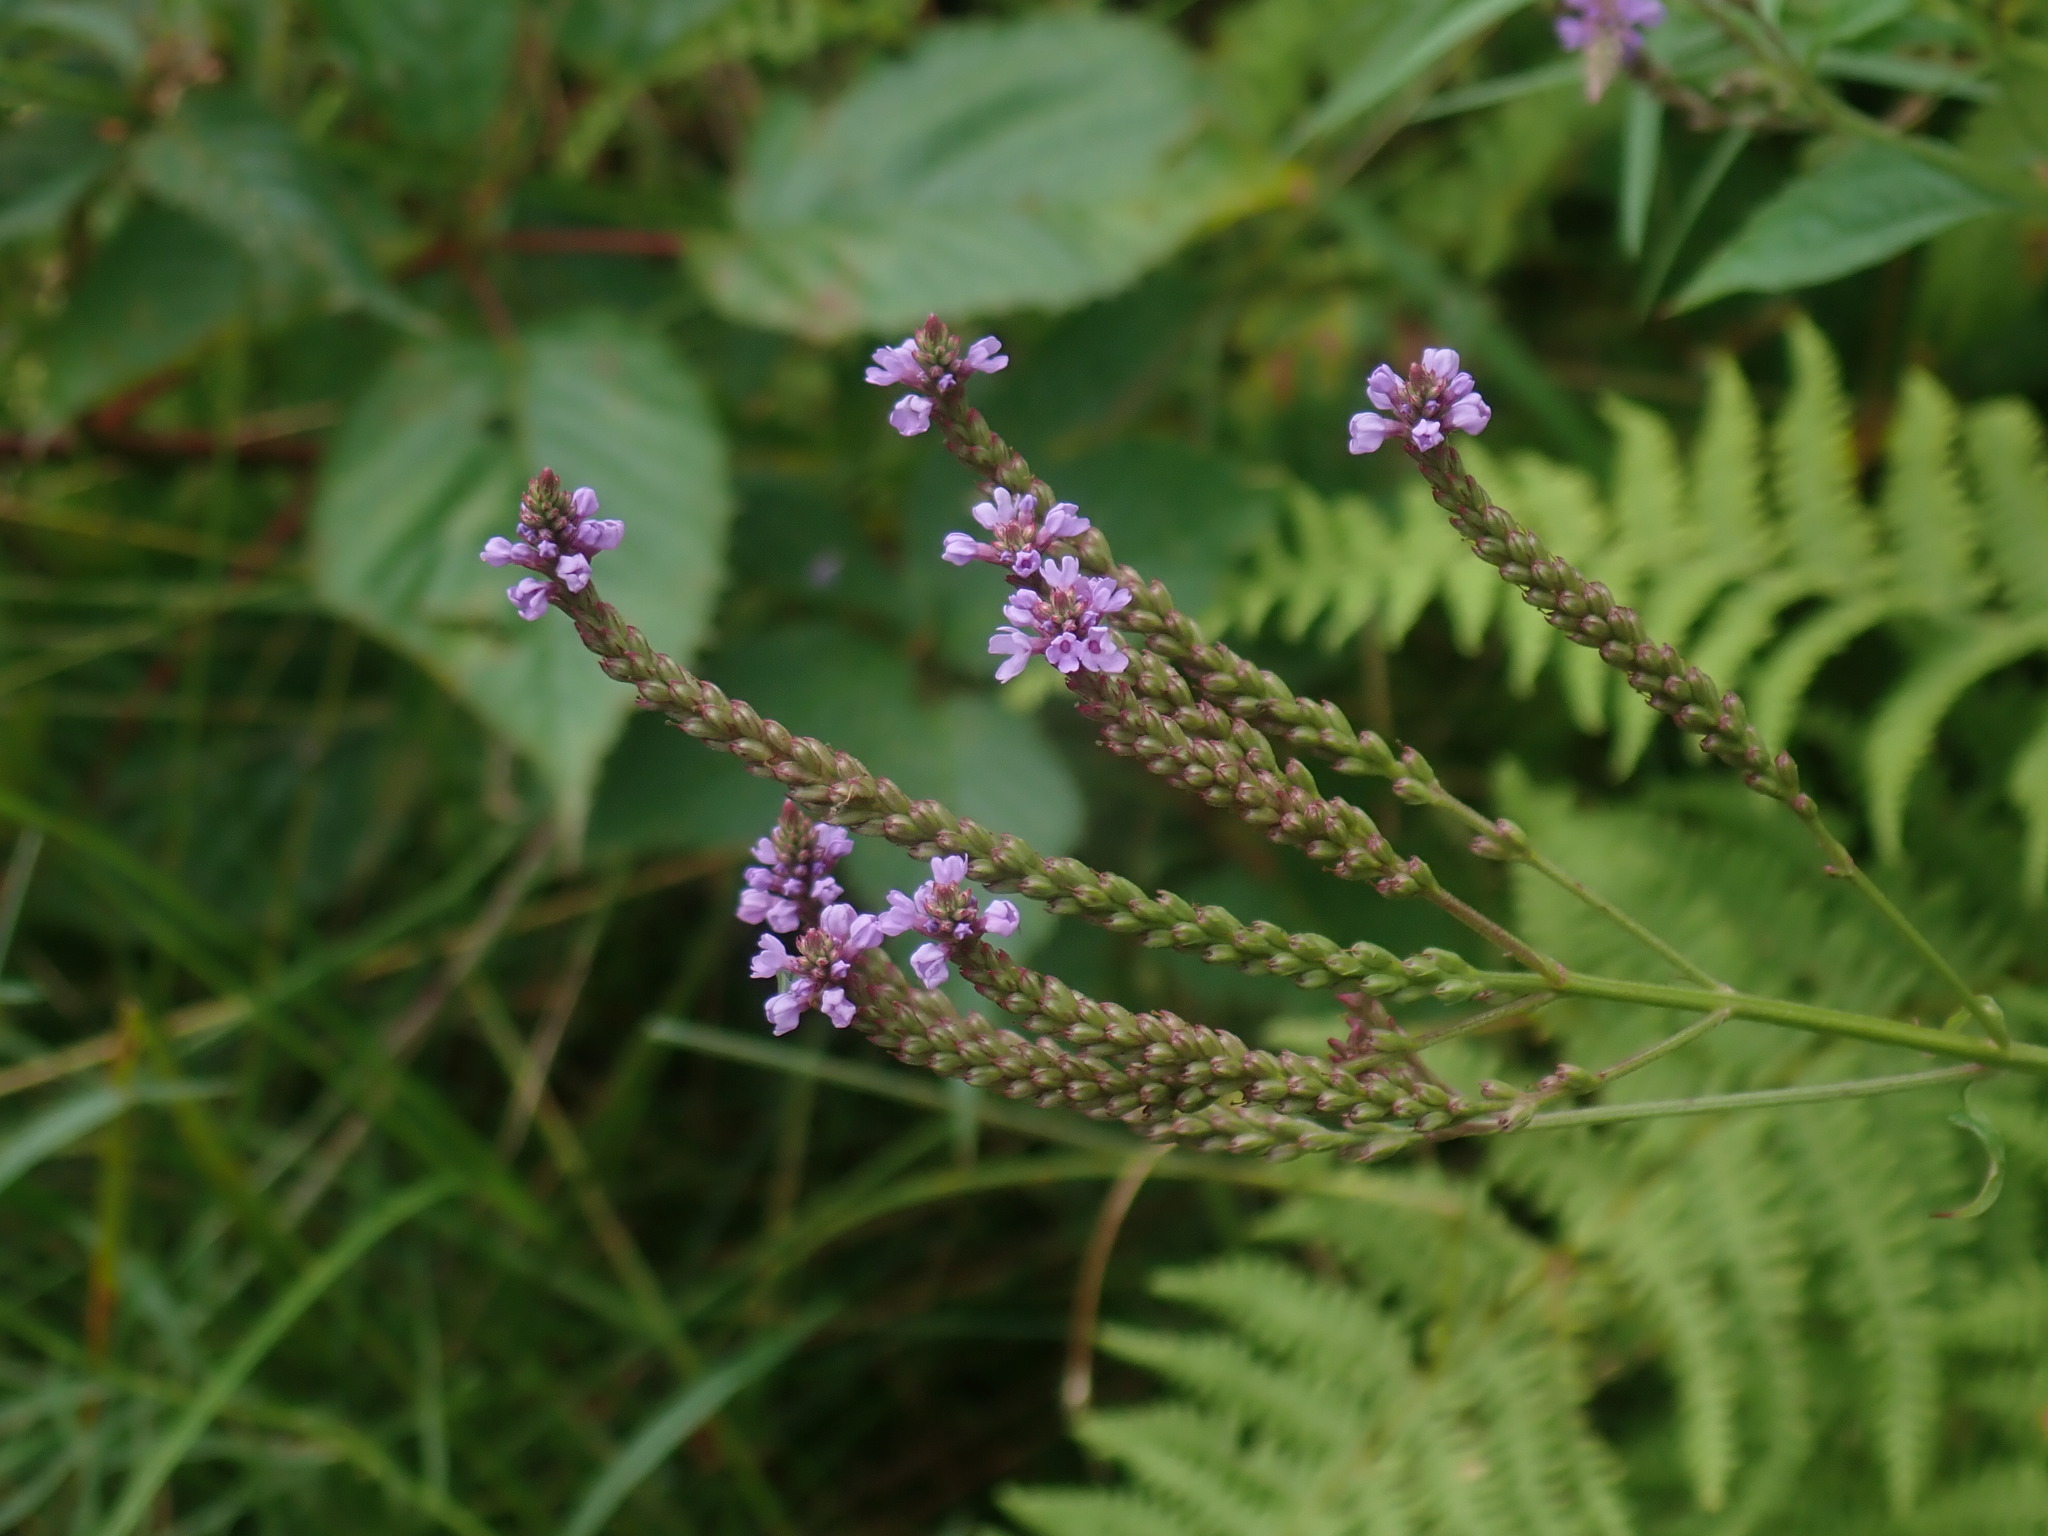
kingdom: Plantae
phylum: Tracheophyta
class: Magnoliopsida
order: Lamiales
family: Verbenaceae
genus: Verbena
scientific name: Verbena hastata
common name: American blue vervain
